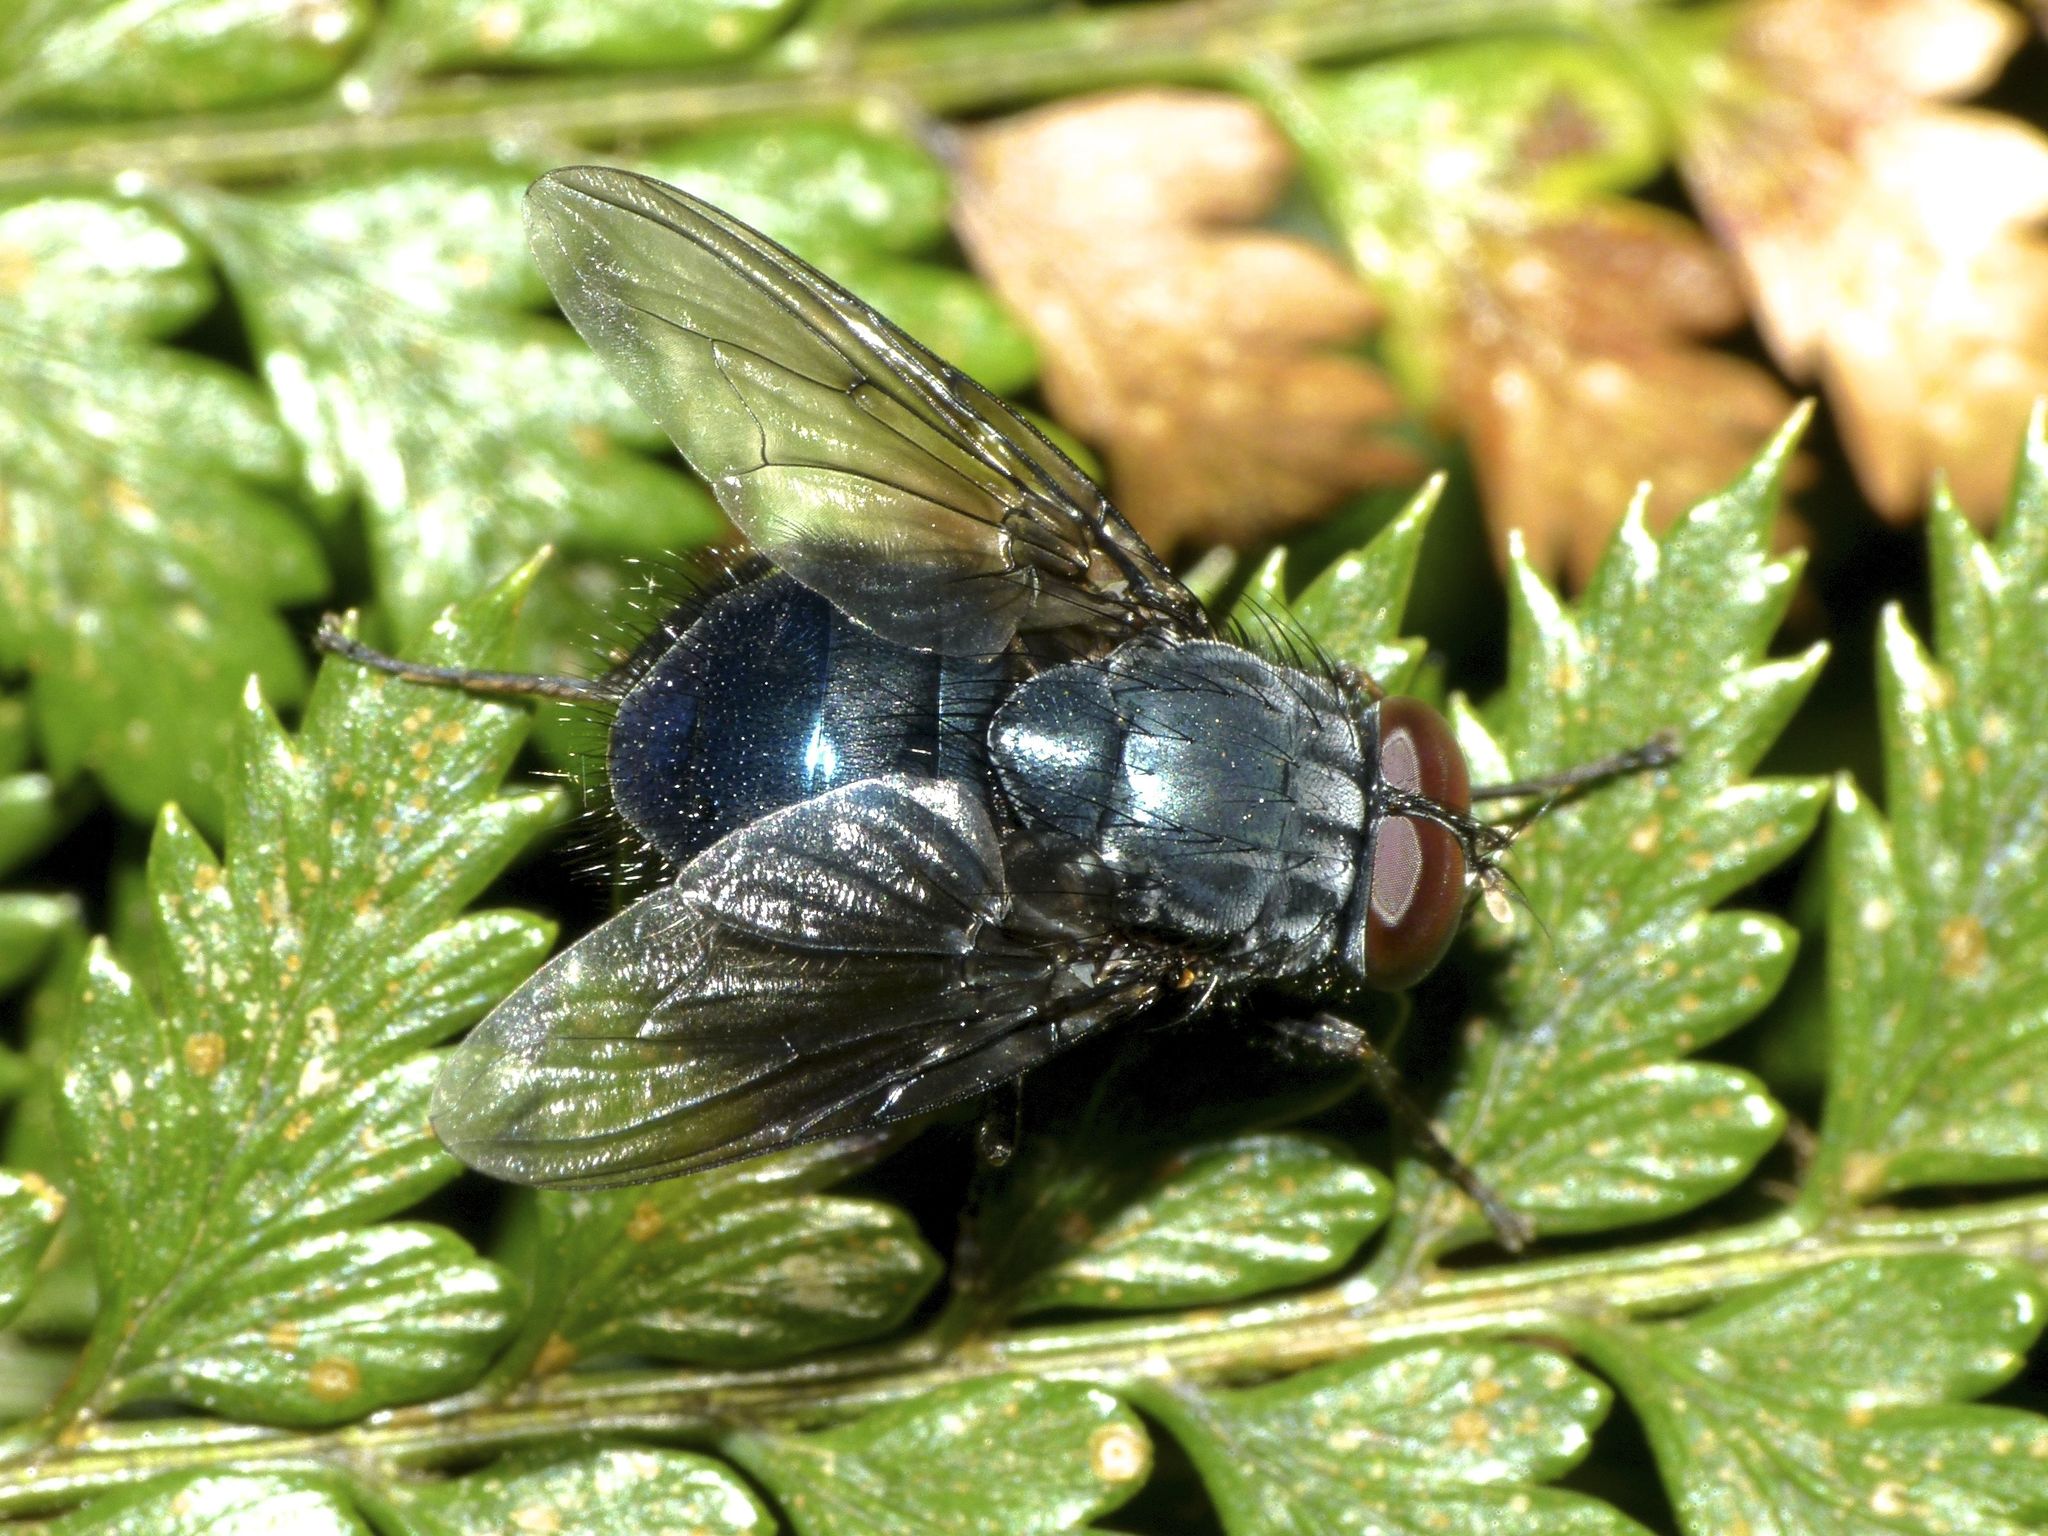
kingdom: Animalia
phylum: Arthropoda
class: Insecta
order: Diptera
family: Muscidae
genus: Calliphoroides
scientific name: Calliphoroides antennatis
